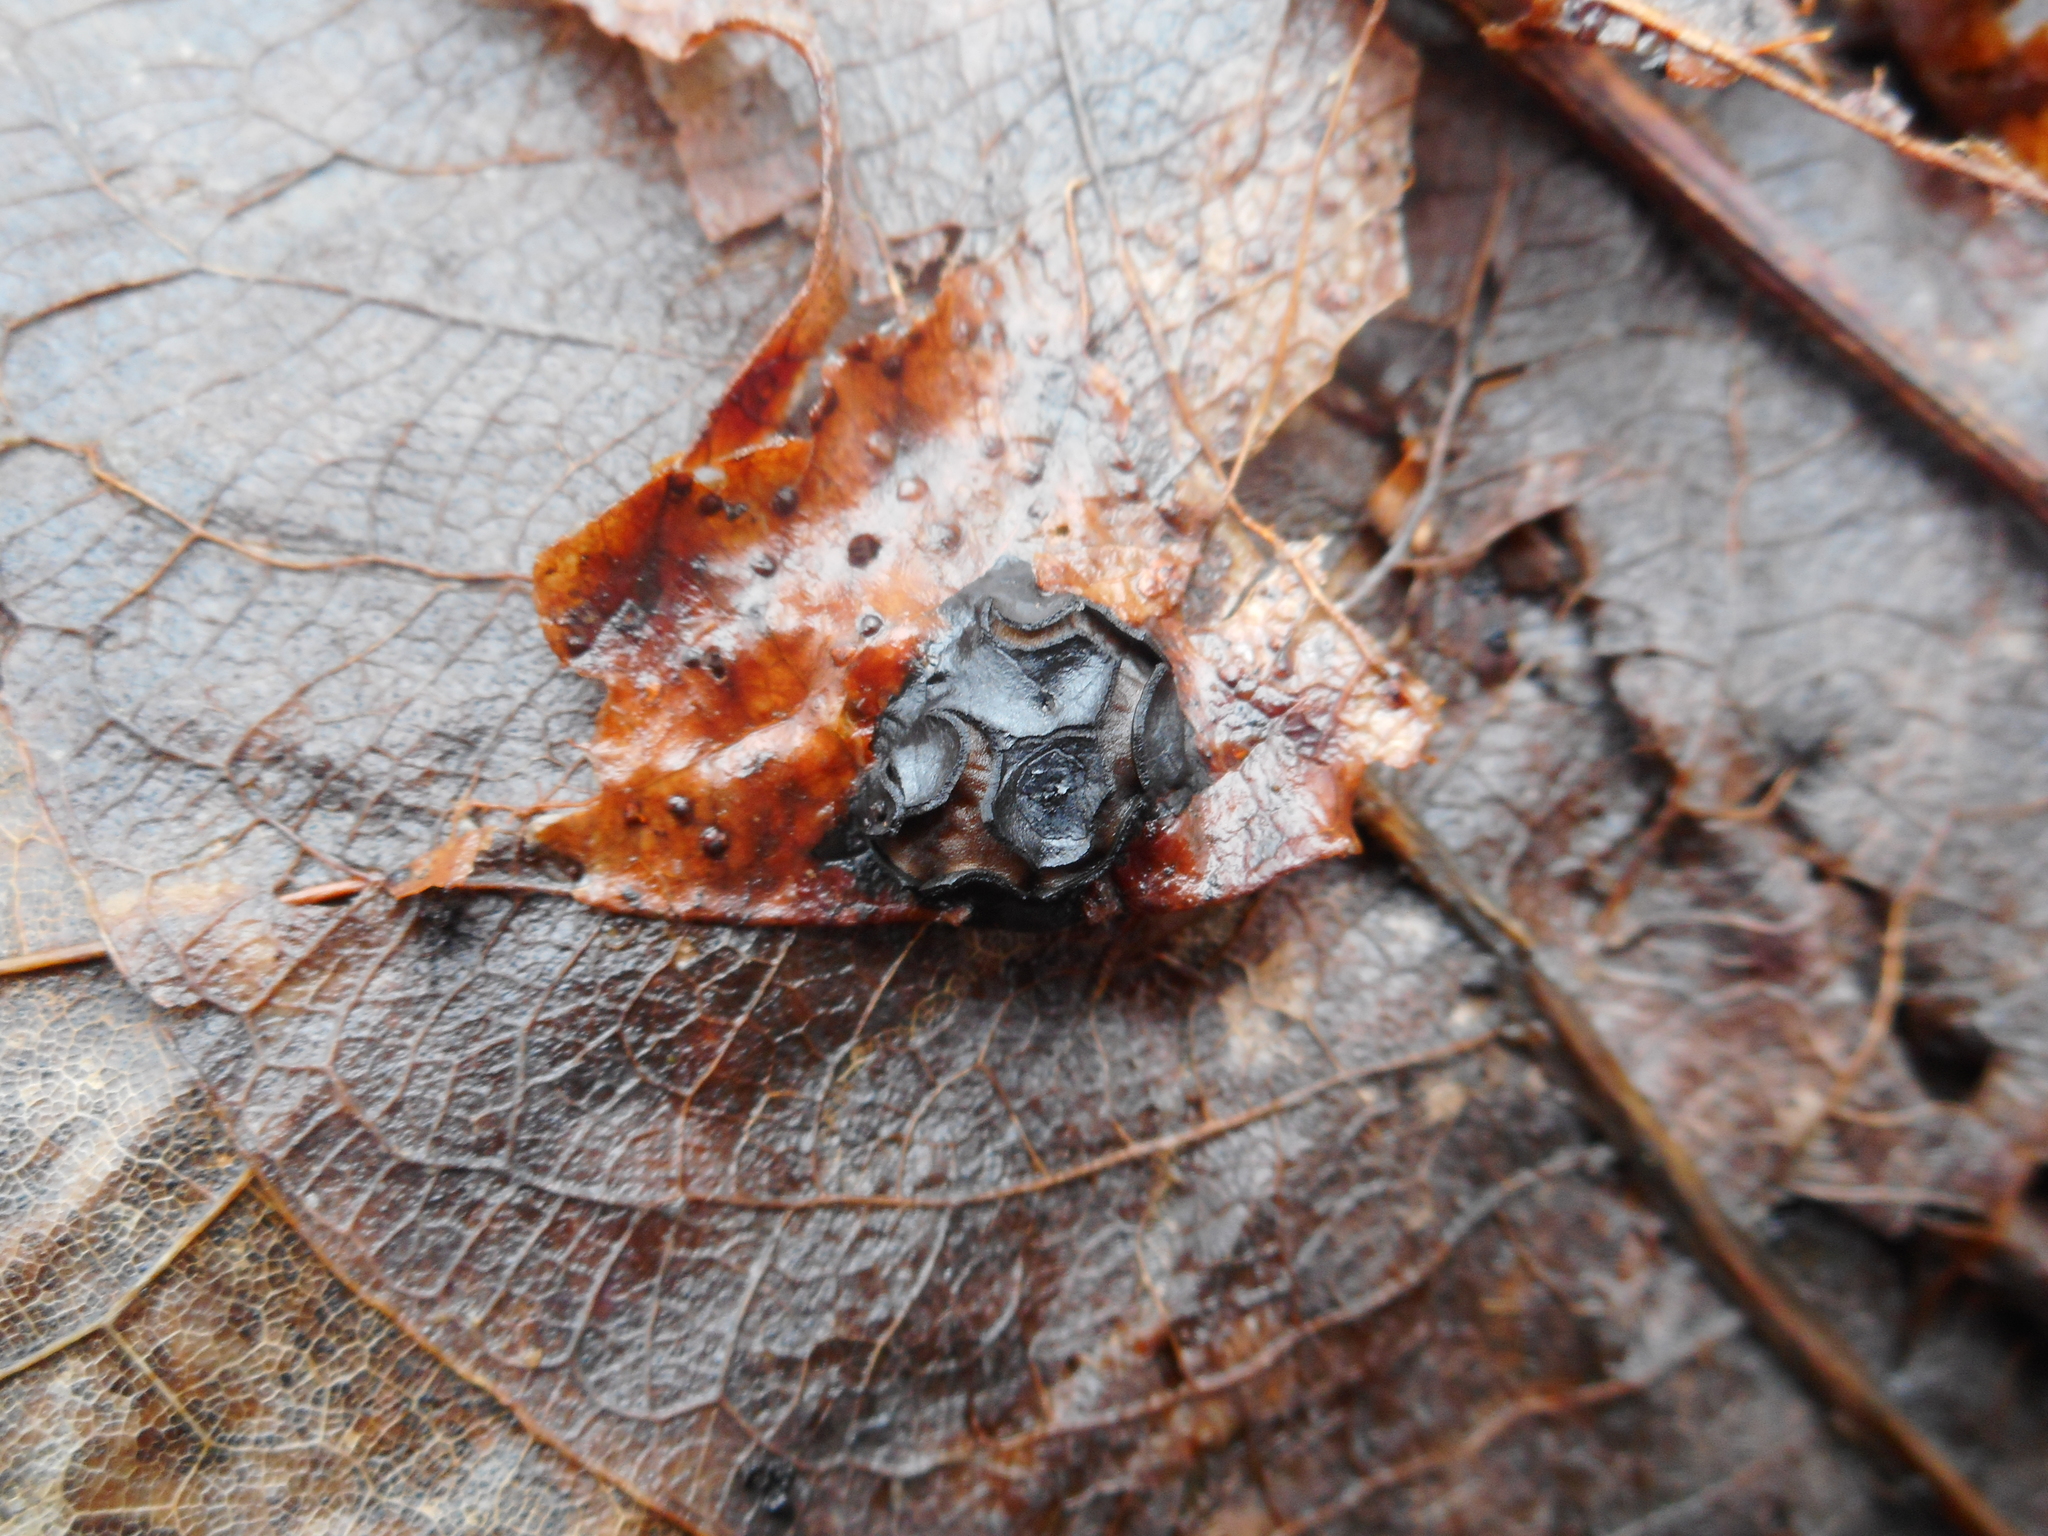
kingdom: Fungi
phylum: Ascomycota
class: Leotiomycetes
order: Rhytismatales
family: Rhytismataceae
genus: Rhytisma
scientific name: Rhytisma salicinum
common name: Willow tarspot
